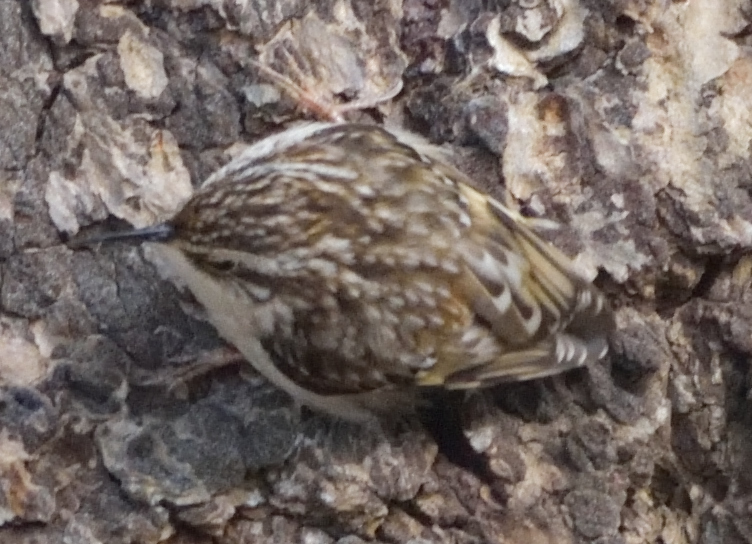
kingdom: Animalia
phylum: Chordata
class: Aves
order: Passeriformes
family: Certhiidae
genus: Certhia
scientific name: Certhia americana
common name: Brown creeper
